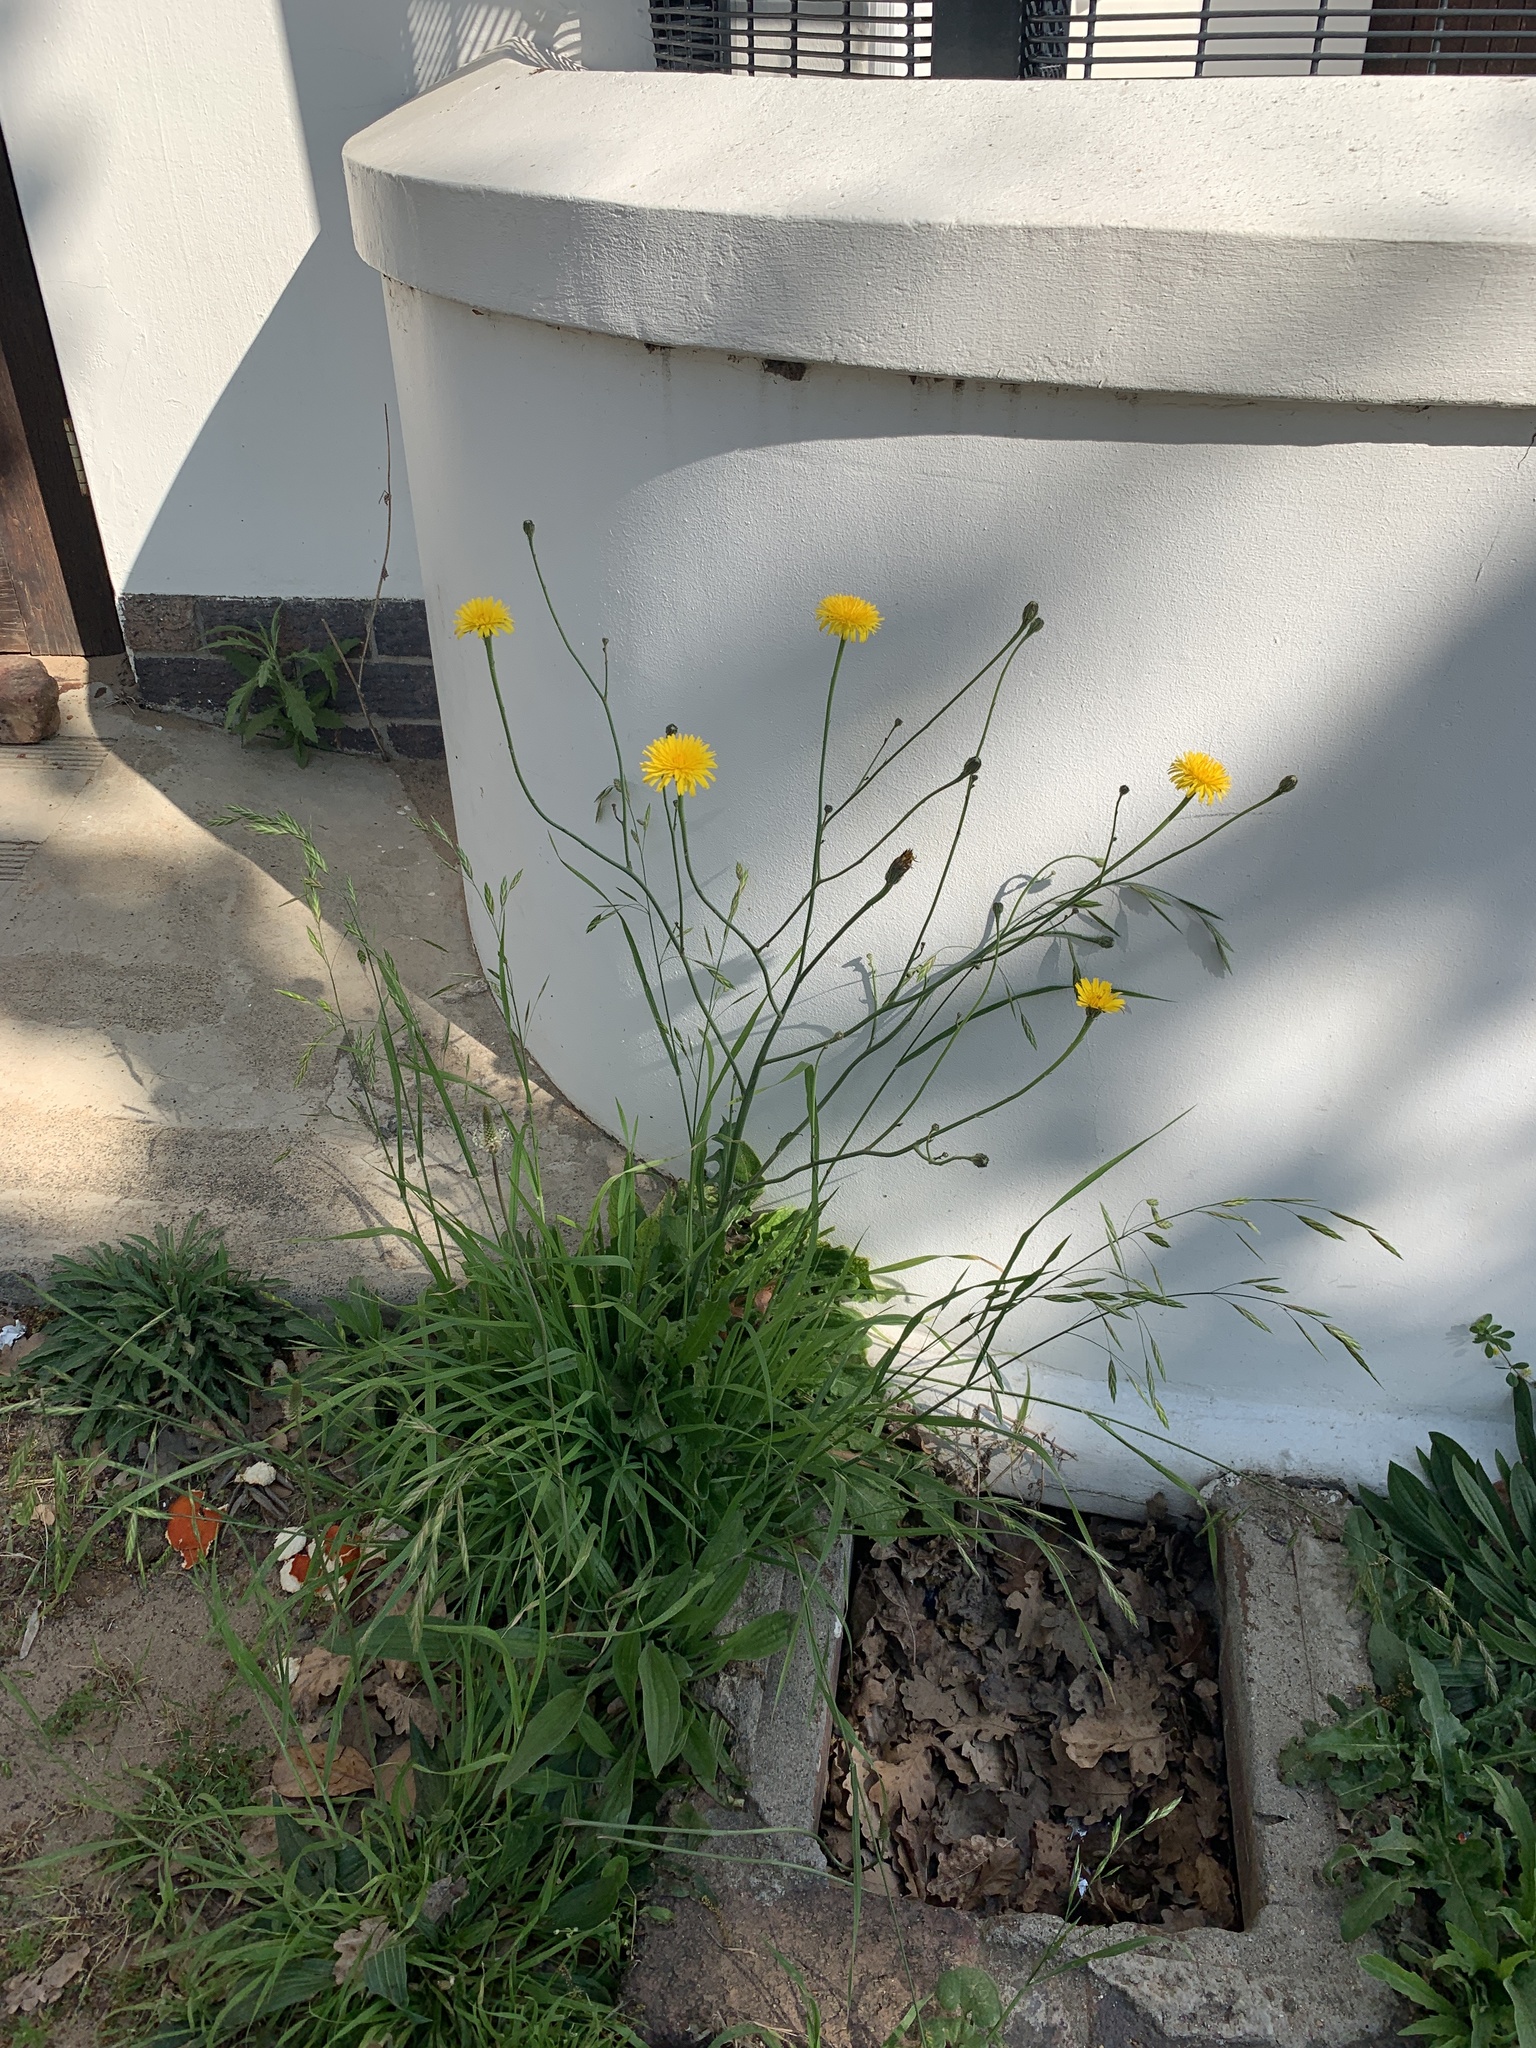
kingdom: Plantae
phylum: Tracheophyta
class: Magnoliopsida
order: Asterales
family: Asteraceae
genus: Hypochaeris
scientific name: Hypochaeris radicata
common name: Flatweed
